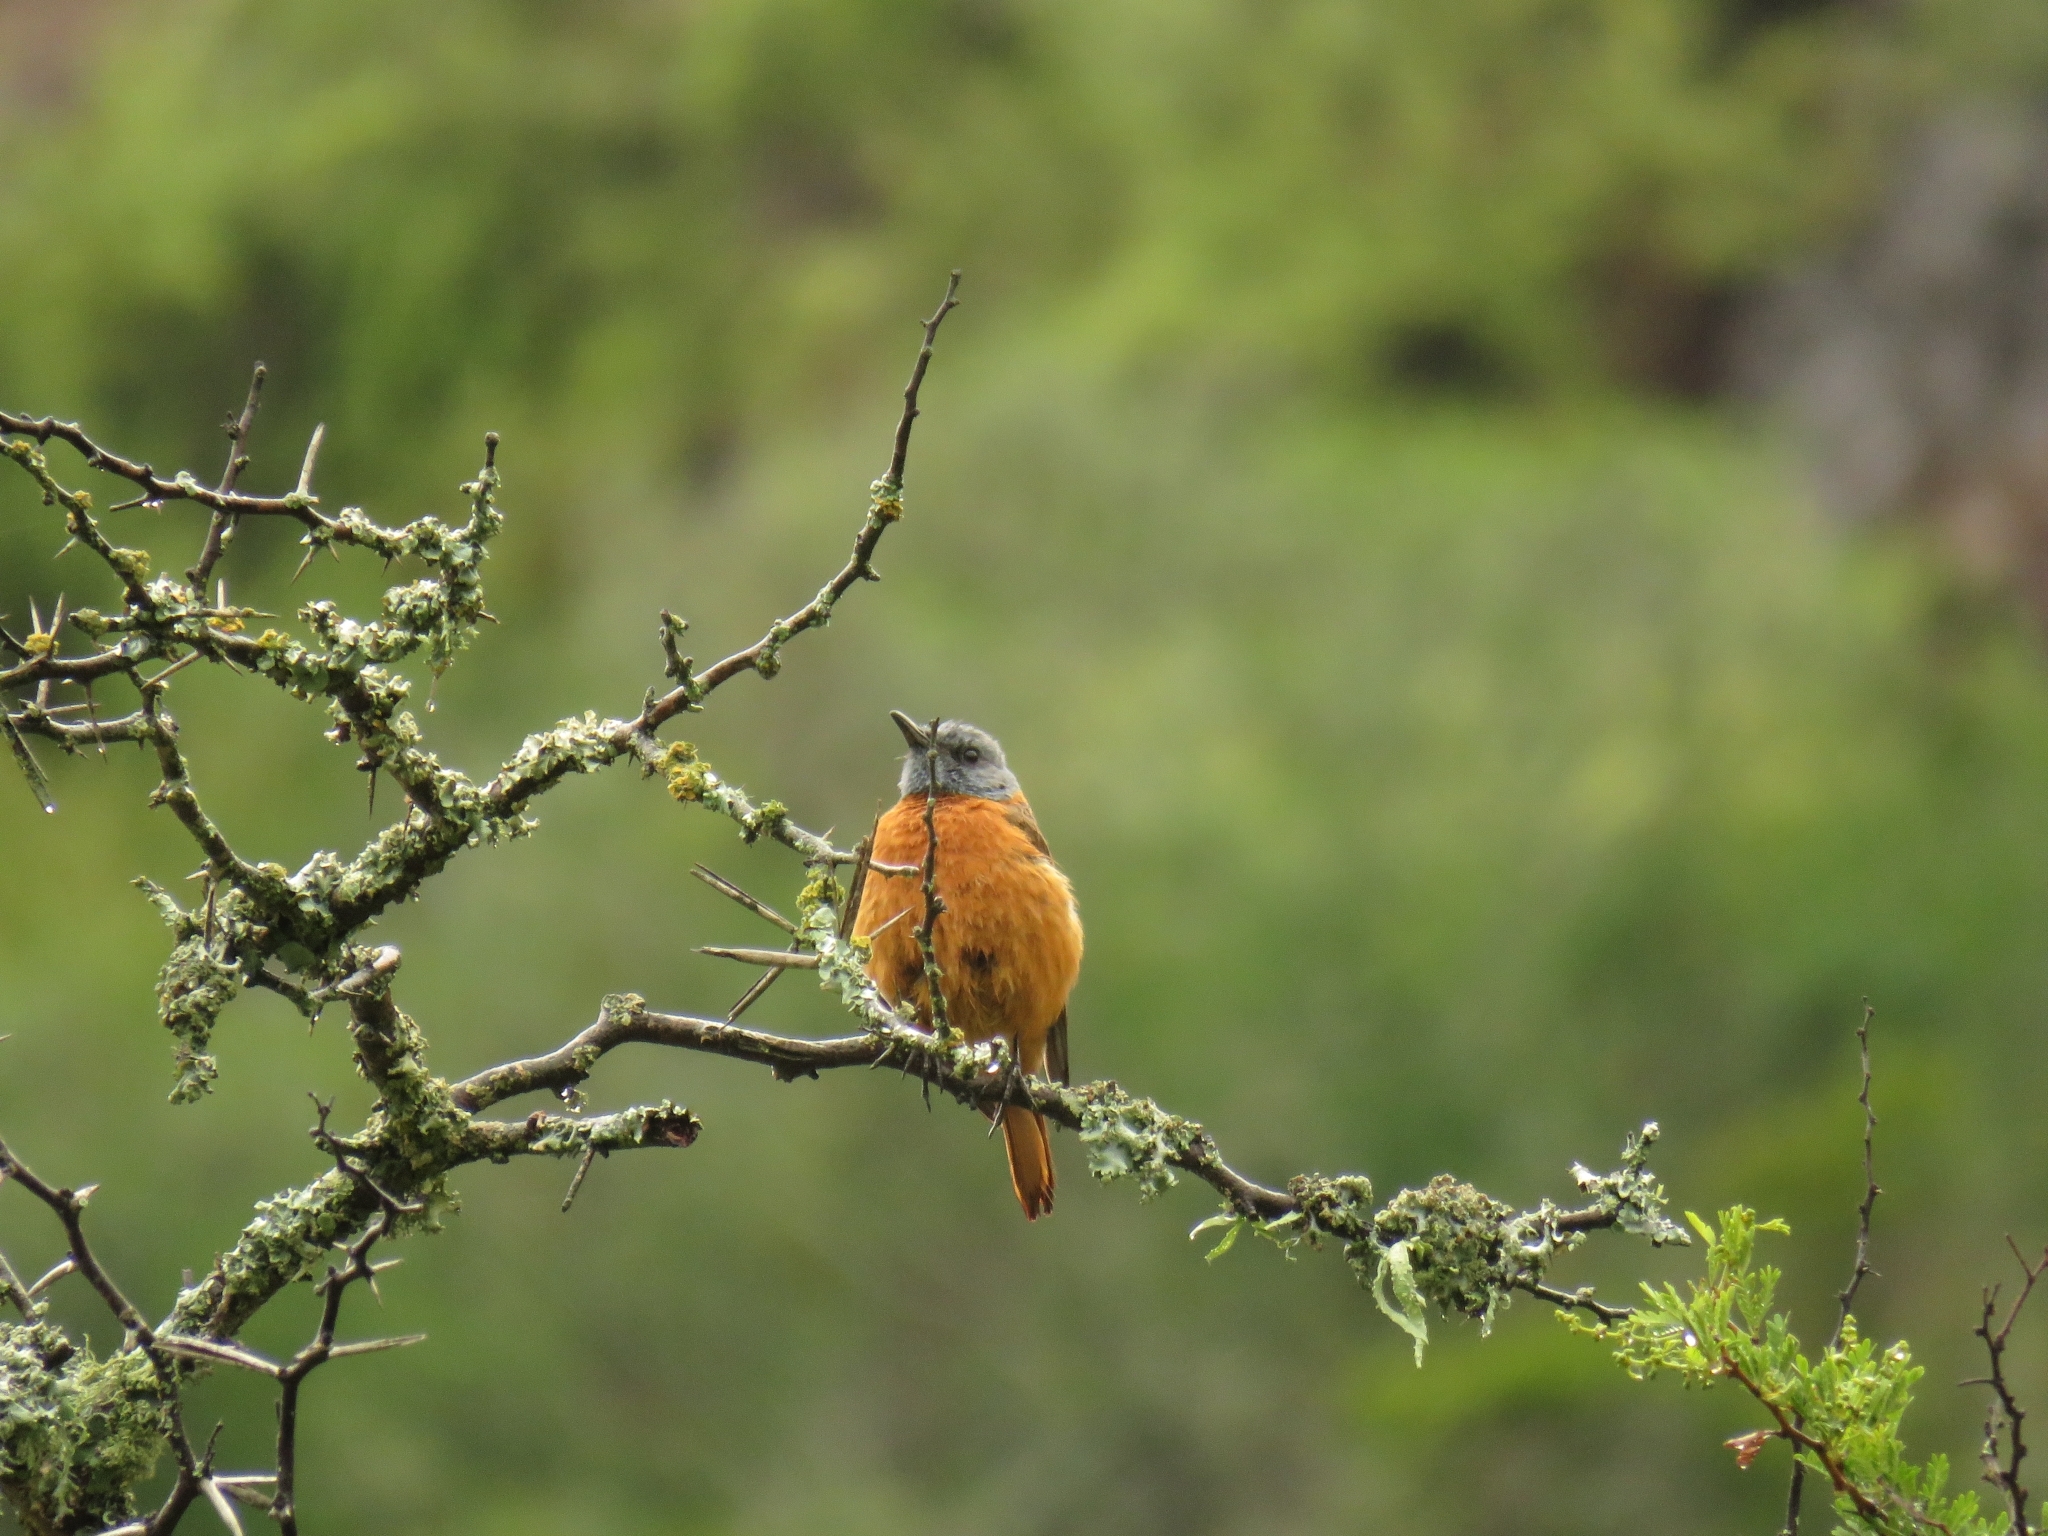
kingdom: Animalia
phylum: Chordata
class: Aves
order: Passeriformes
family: Muscicapidae
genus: Monticola
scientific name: Monticola rupestris
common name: Cape rock thrush
